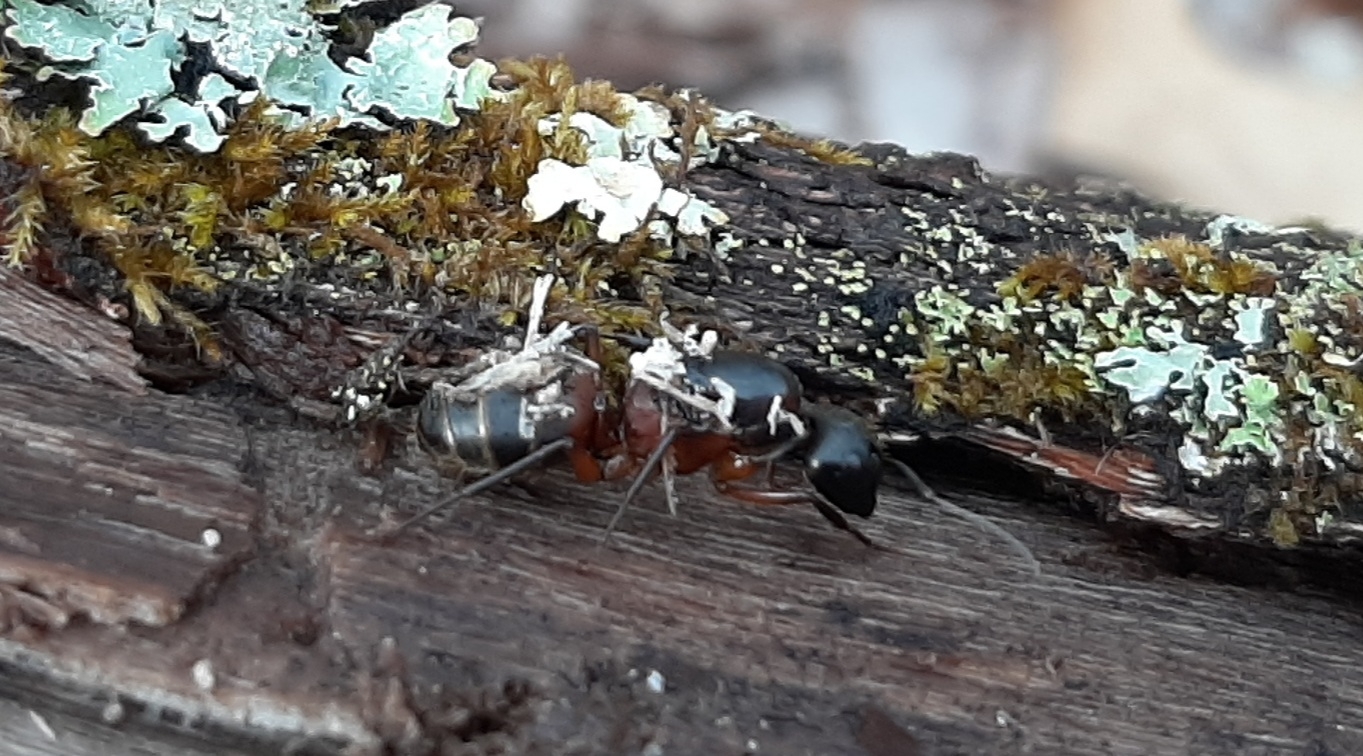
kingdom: Animalia
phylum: Arthropoda
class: Insecta
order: Hymenoptera
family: Formicidae
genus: Camponotus
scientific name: Camponotus chromaiodes
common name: Red carpenter ant
